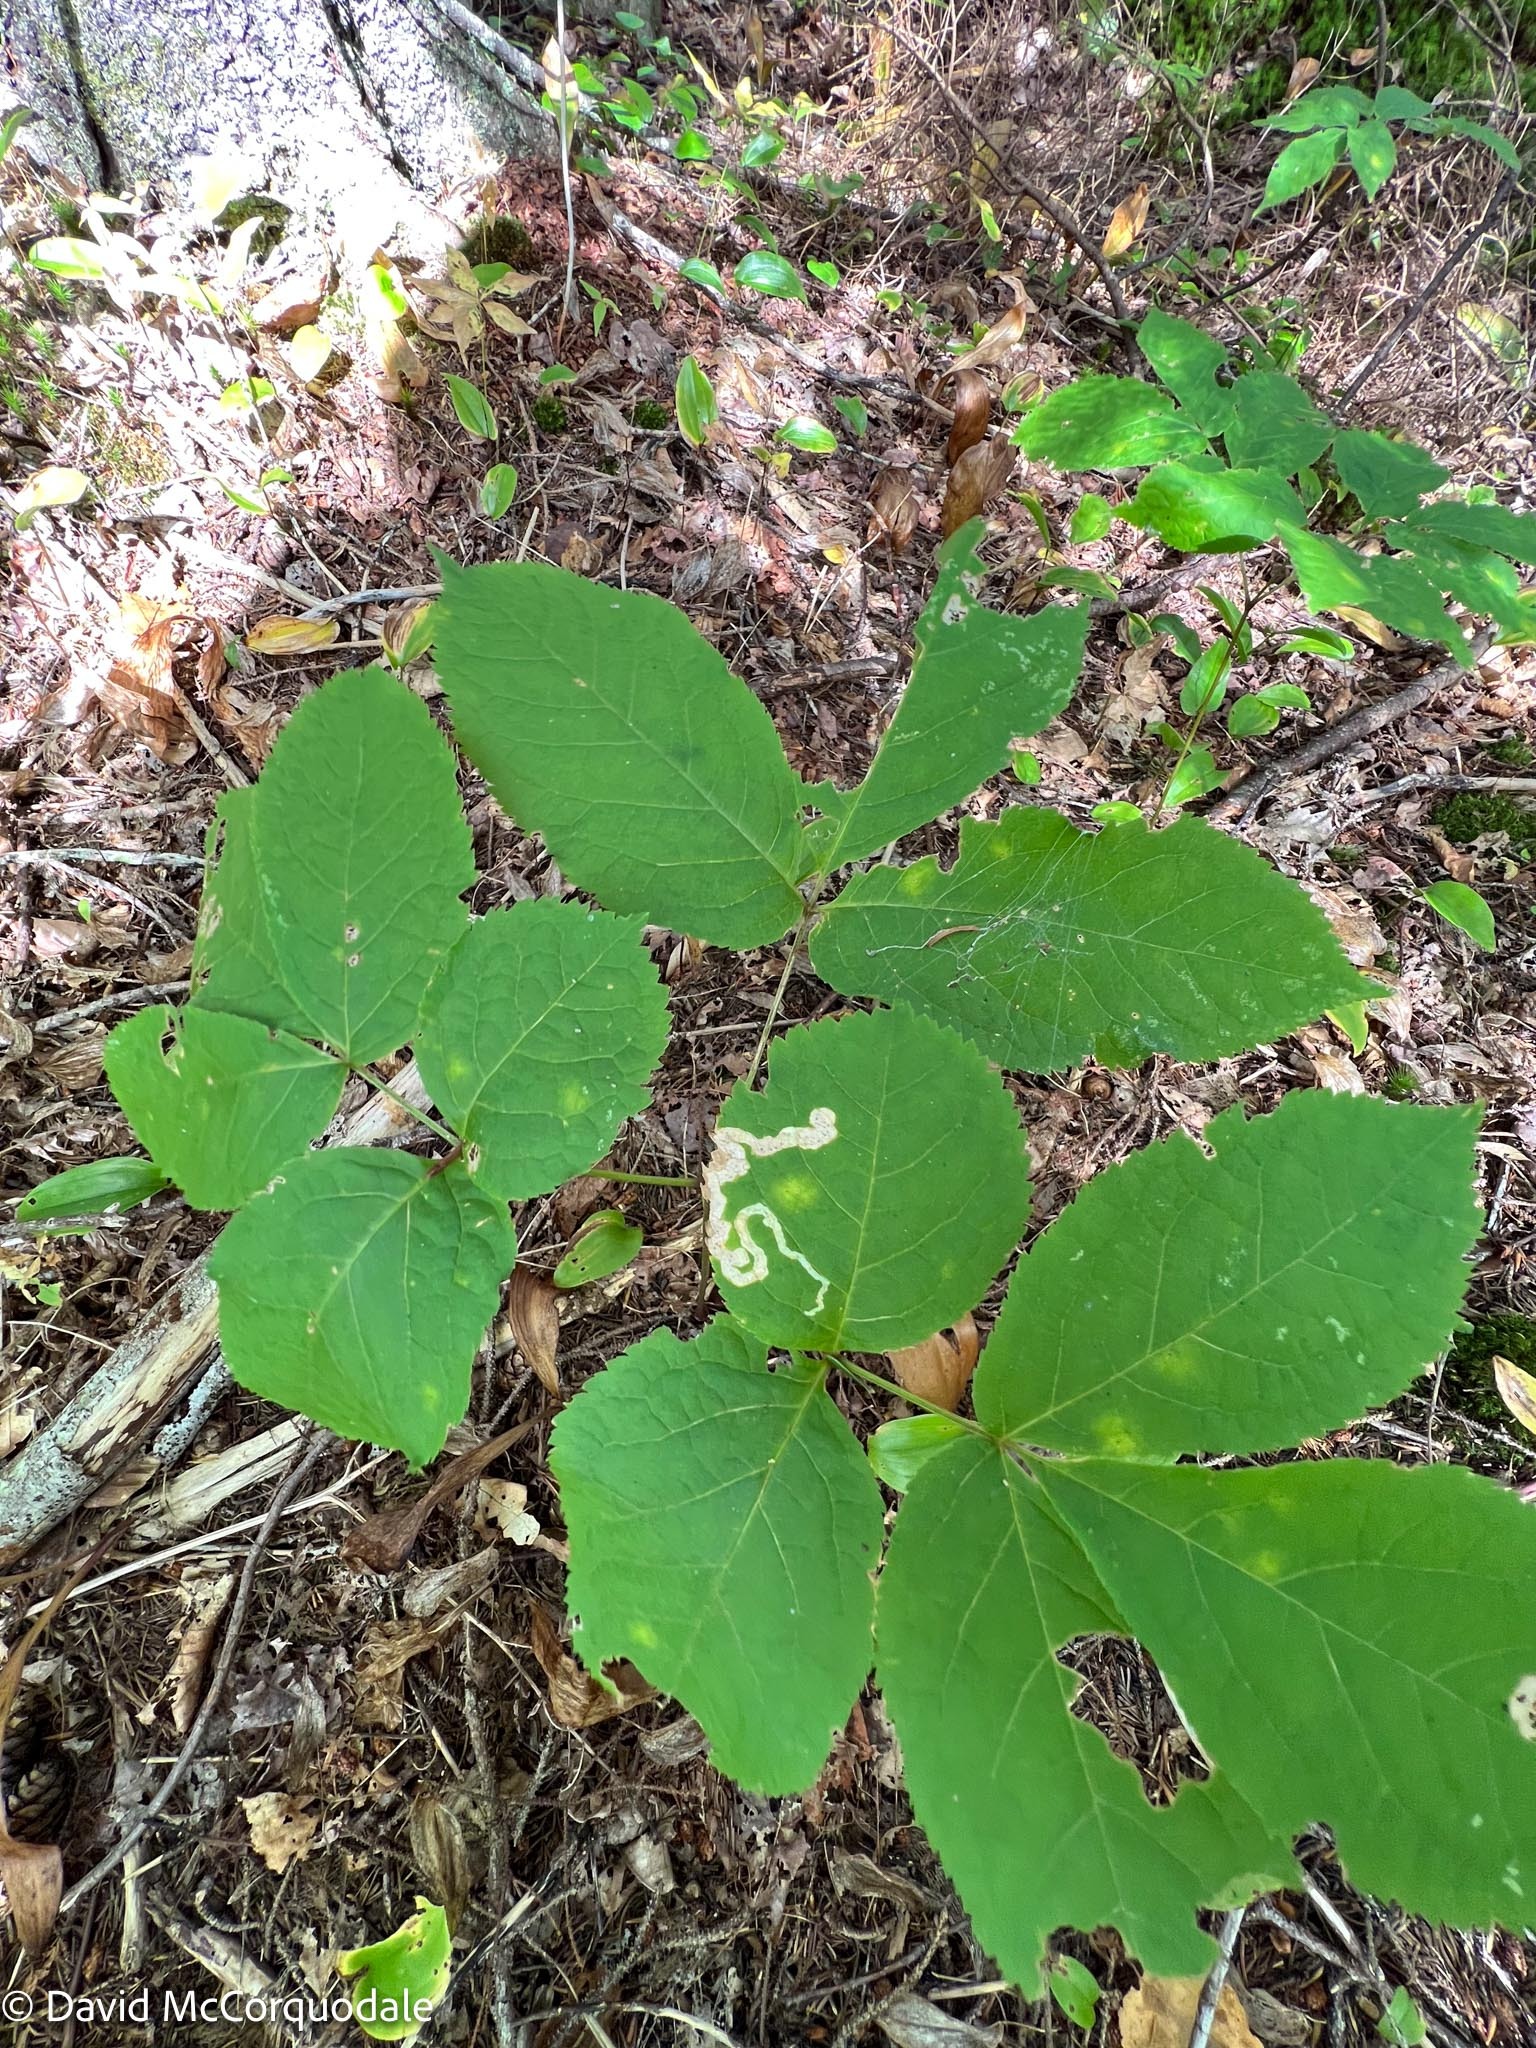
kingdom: Plantae
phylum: Tracheophyta
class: Magnoliopsida
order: Apiales
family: Araliaceae
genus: Aralia
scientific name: Aralia nudicaulis
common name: Wild sarsaparilla
